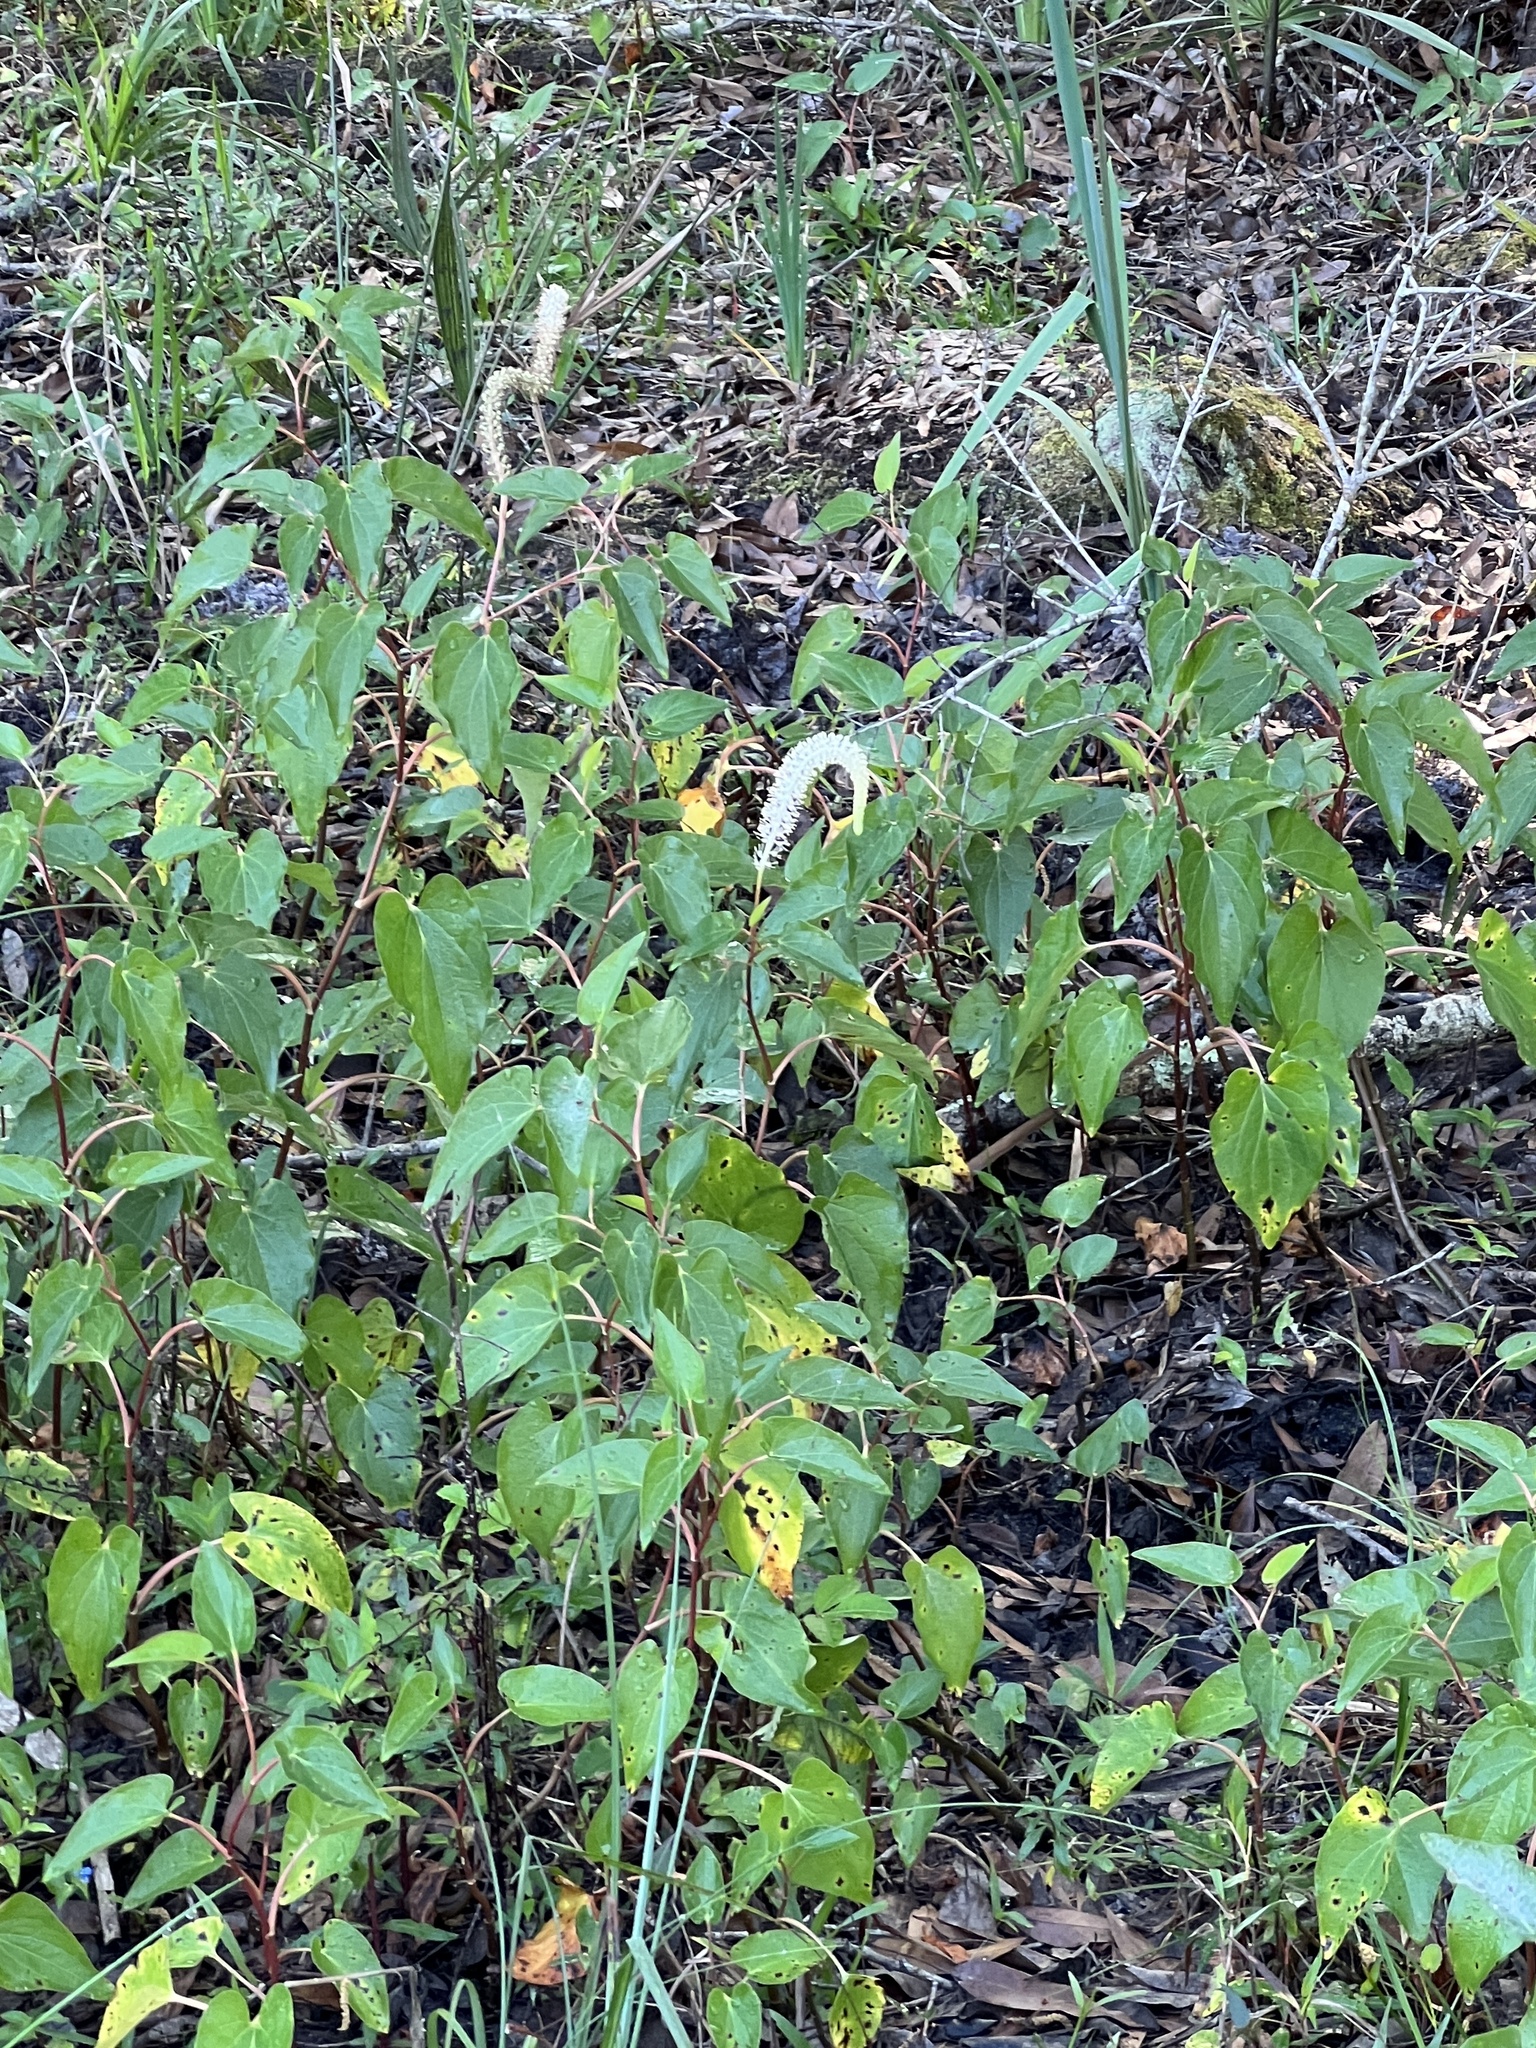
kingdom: Plantae
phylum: Tracheophyta
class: Magnoliopsida
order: Piperales
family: Saururaceae
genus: Saururus
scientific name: Saururus cernuus
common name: Lizard's-tail
